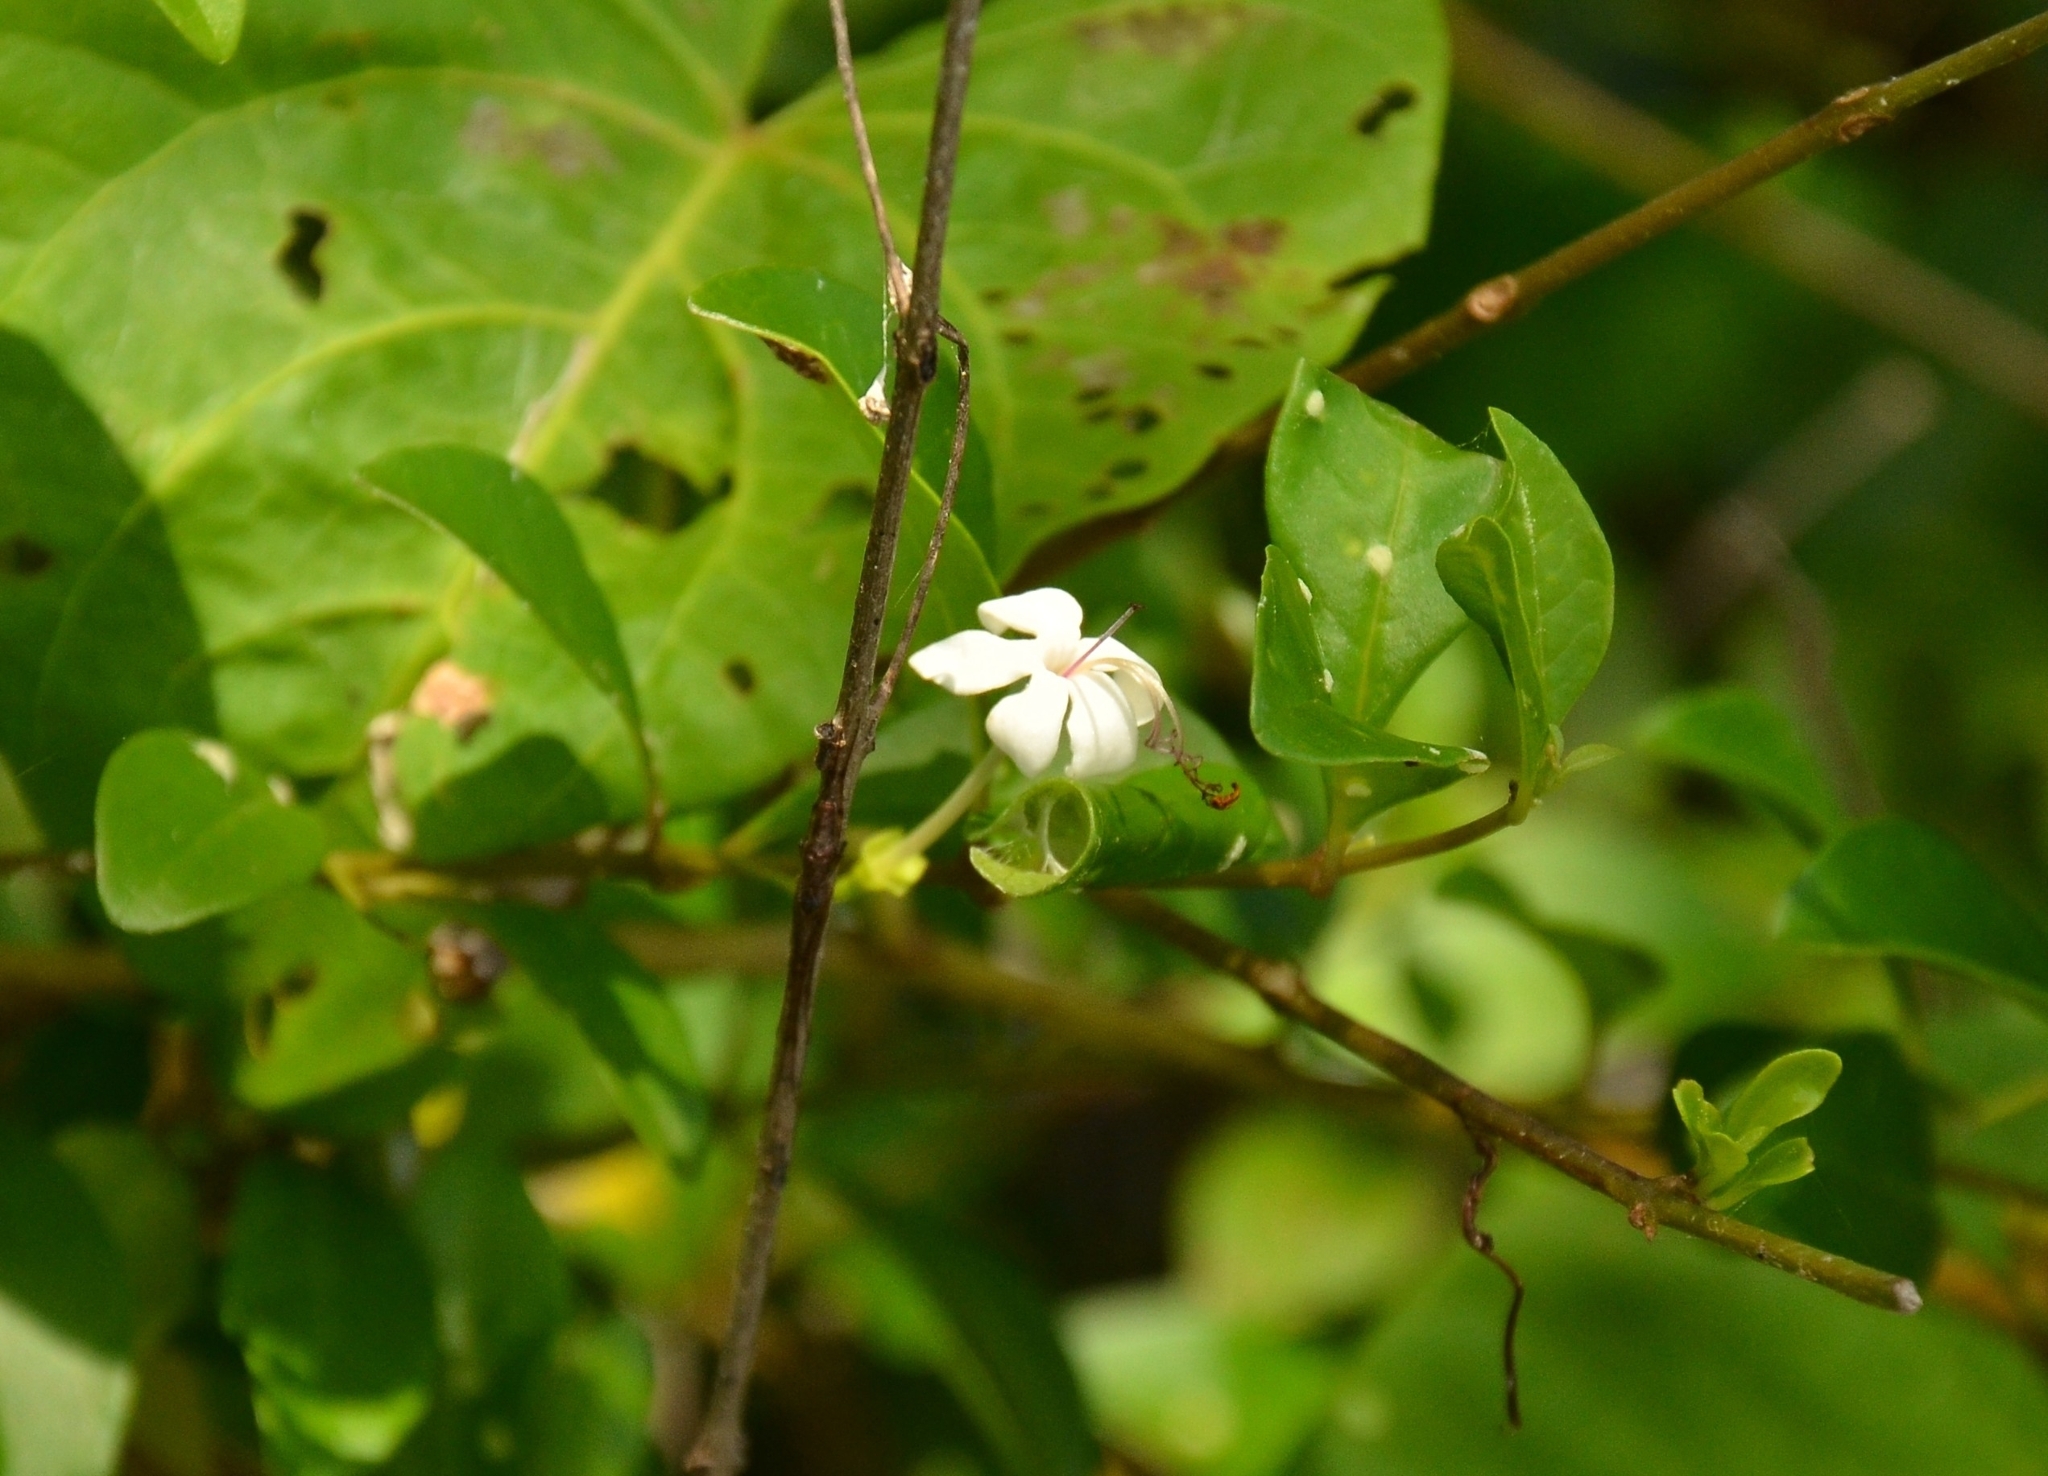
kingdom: Plantae
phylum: Tracheophyta
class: Magnoliopsida
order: Lamiales
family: Lamiaceae
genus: Volkameria
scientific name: Volkameria inermis
